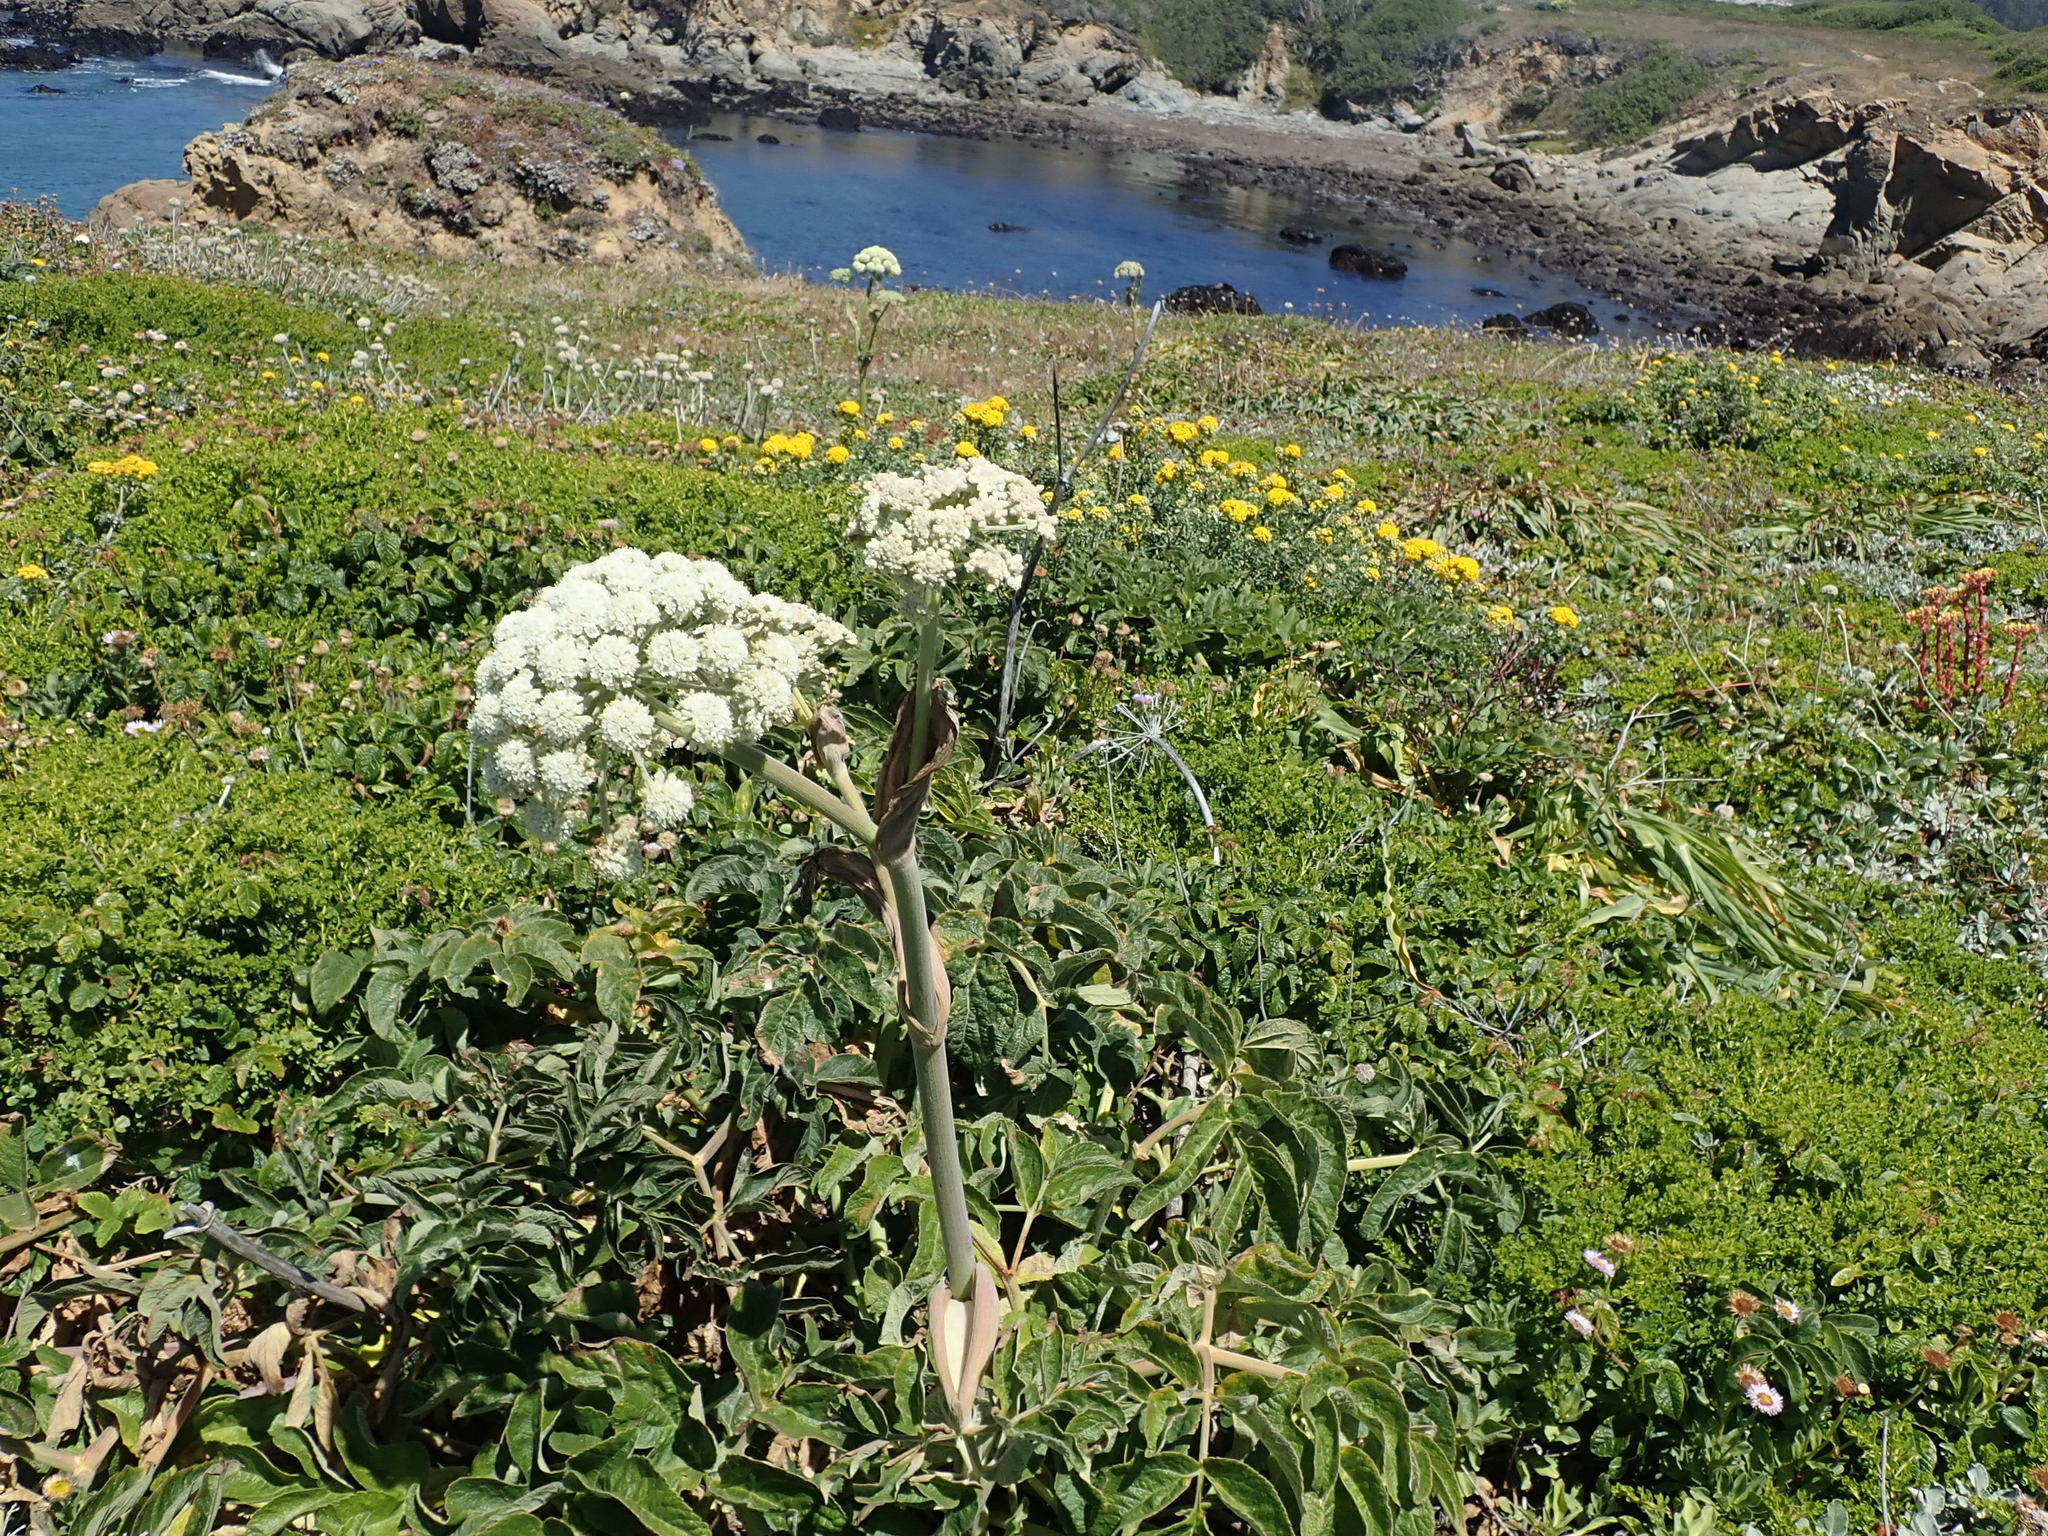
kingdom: Plantae
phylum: Tracheophyta
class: Magnoliopsida
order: Apiales
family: Apiaceae
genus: Angelica
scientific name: Angelica hendersonii
